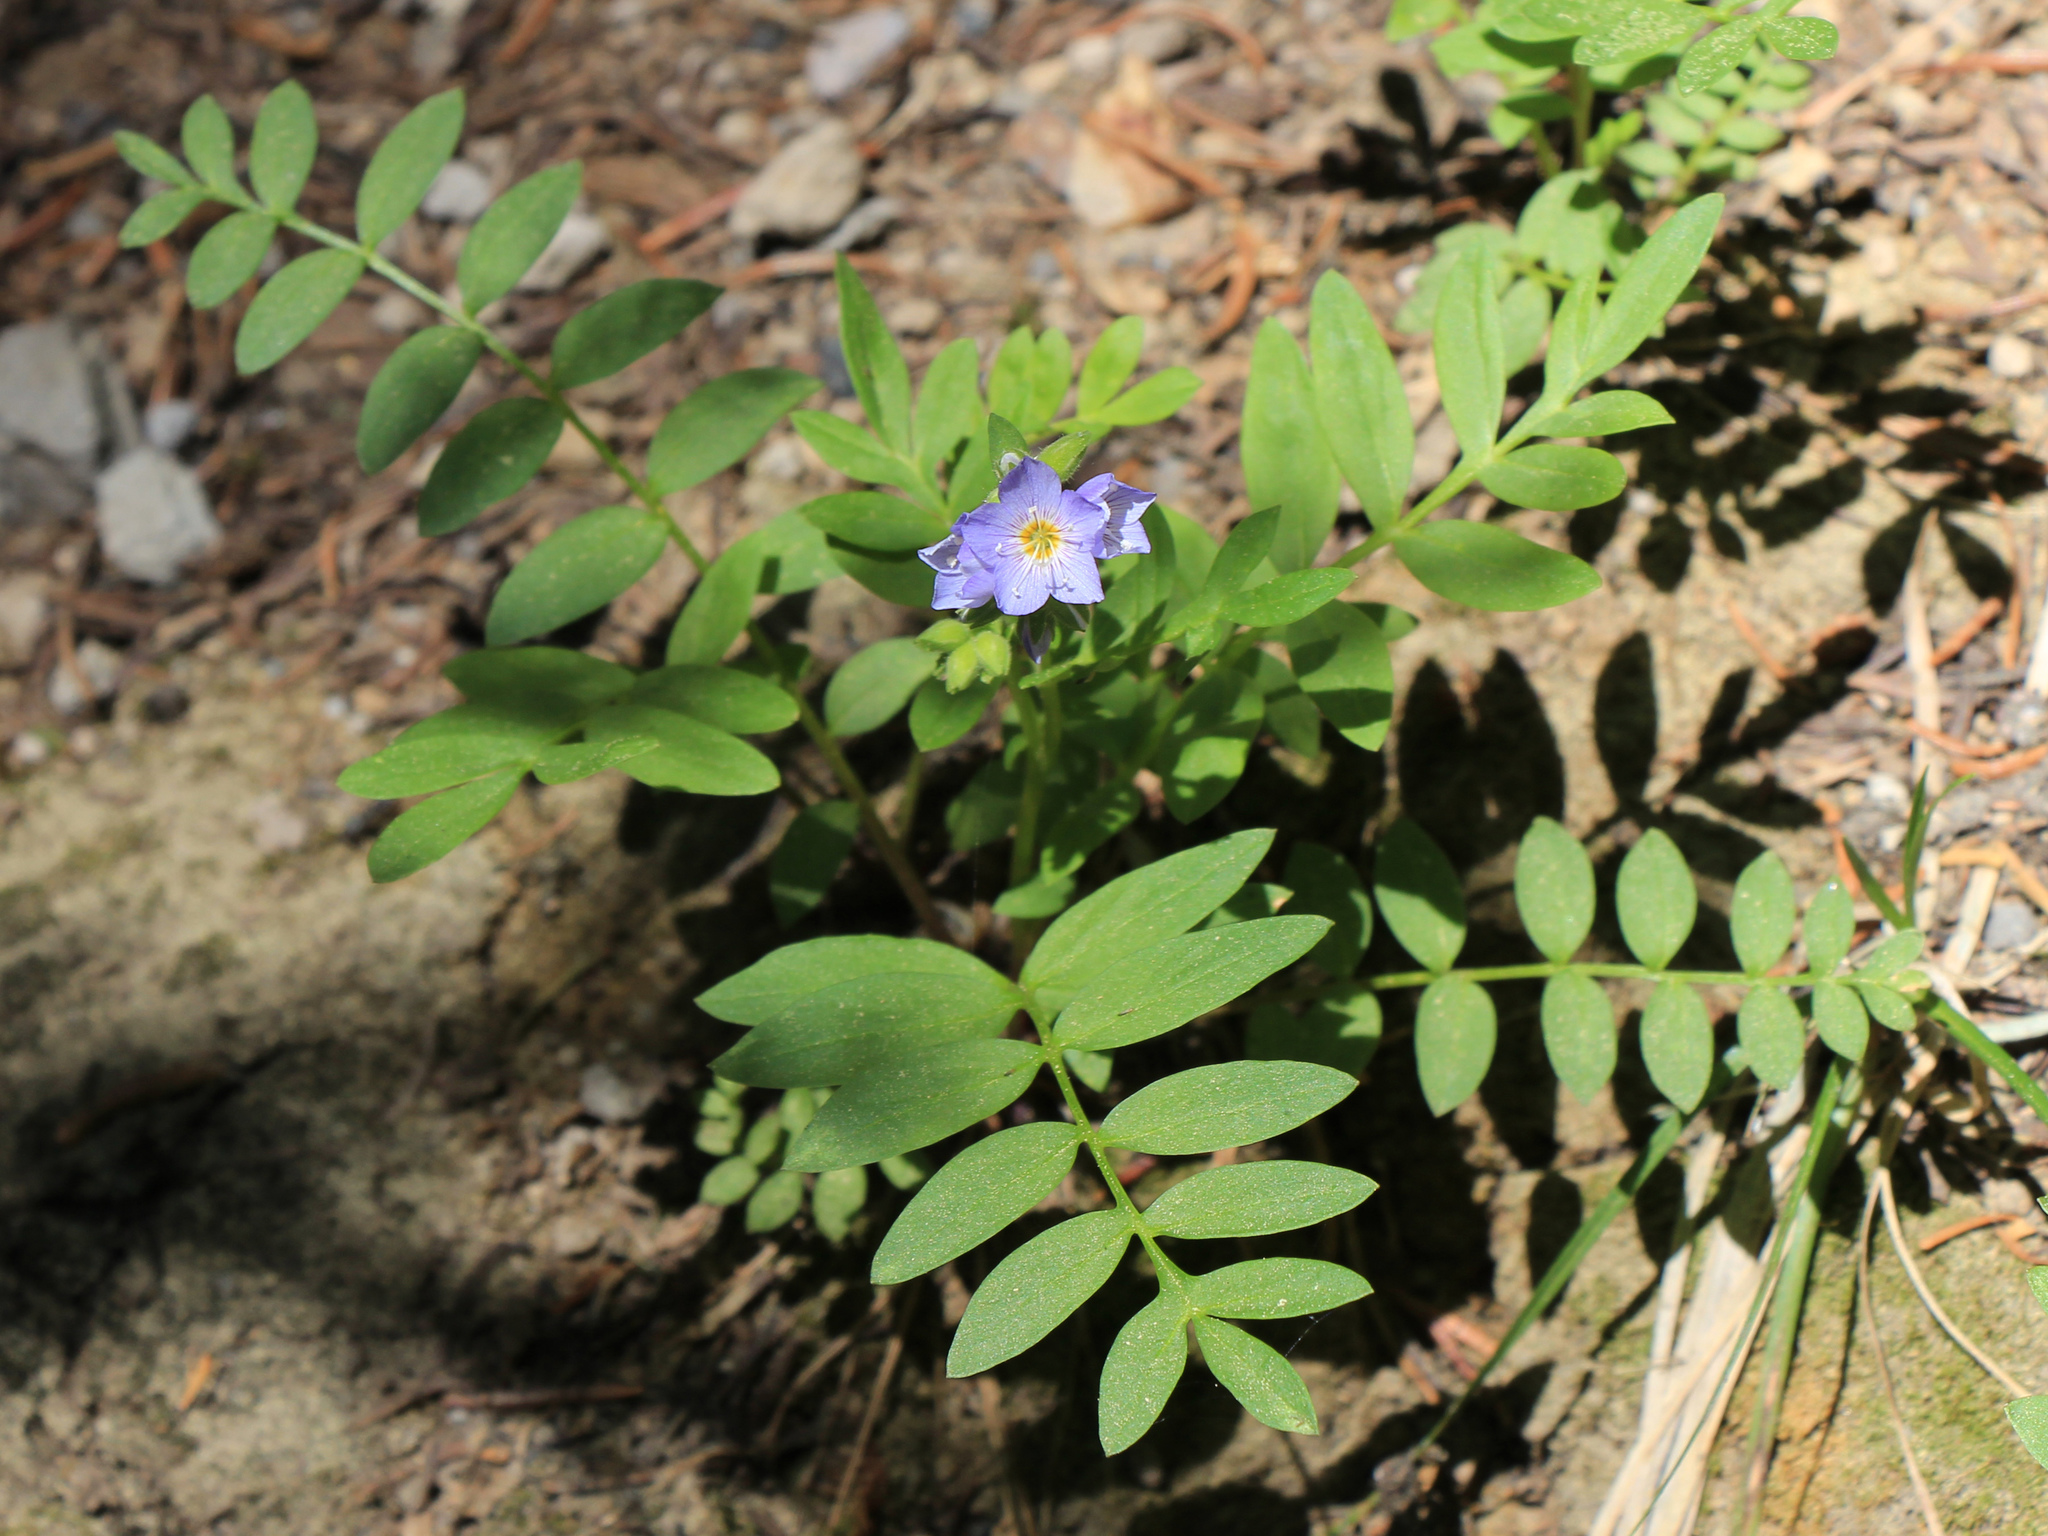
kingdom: Plantae
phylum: Tracheophyta
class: Magnoliopsida
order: Ericales
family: Polemoniaceae
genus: Polemonium
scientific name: Polemonium californicum
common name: California jacob's ladder
